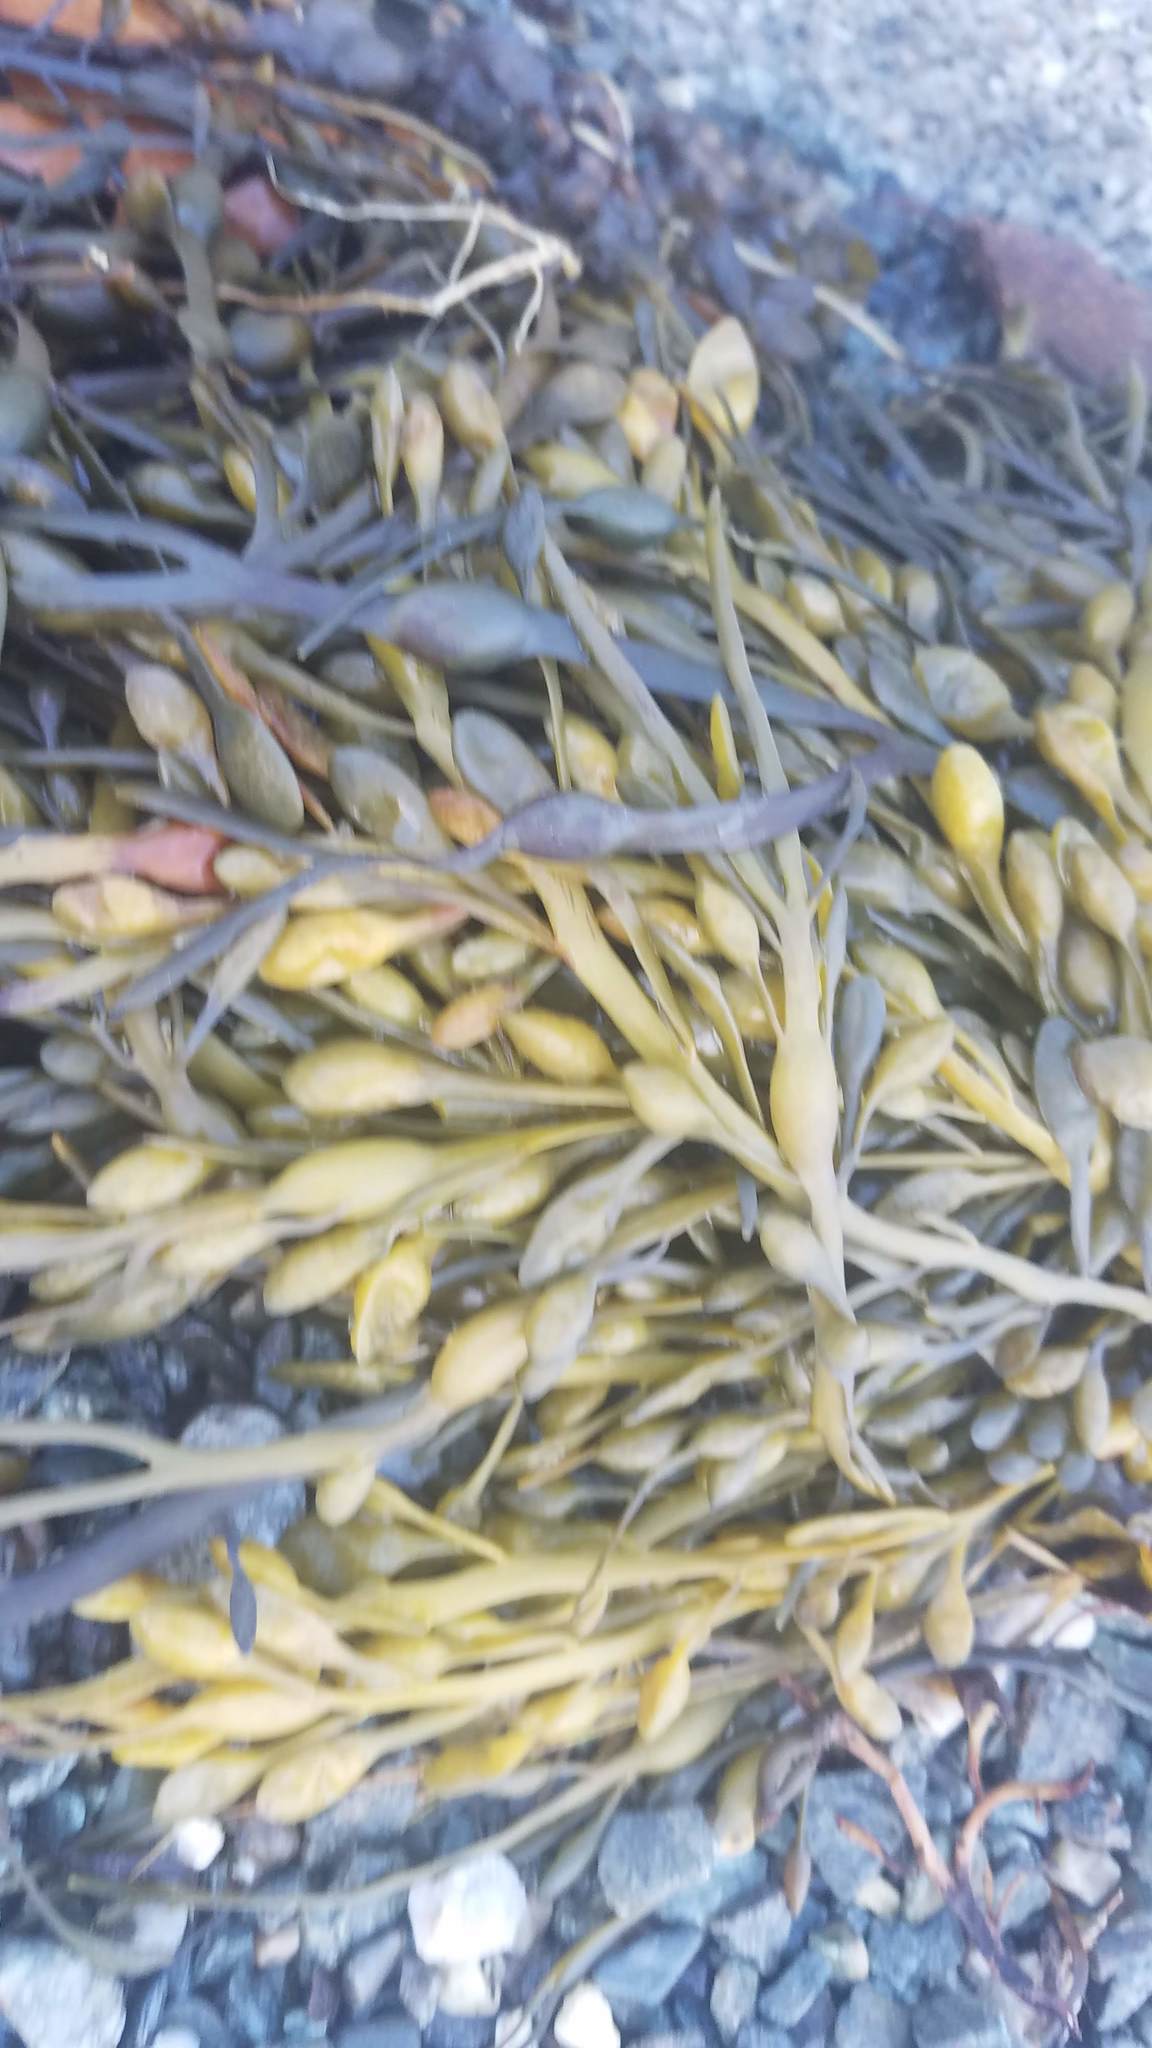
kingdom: Chromista
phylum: Ochrophyta
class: Phaeophyceae
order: Fucales
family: Fucaceae
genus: Ascophyllum
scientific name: Ascophyllum nodosum
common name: Knotted wrack
